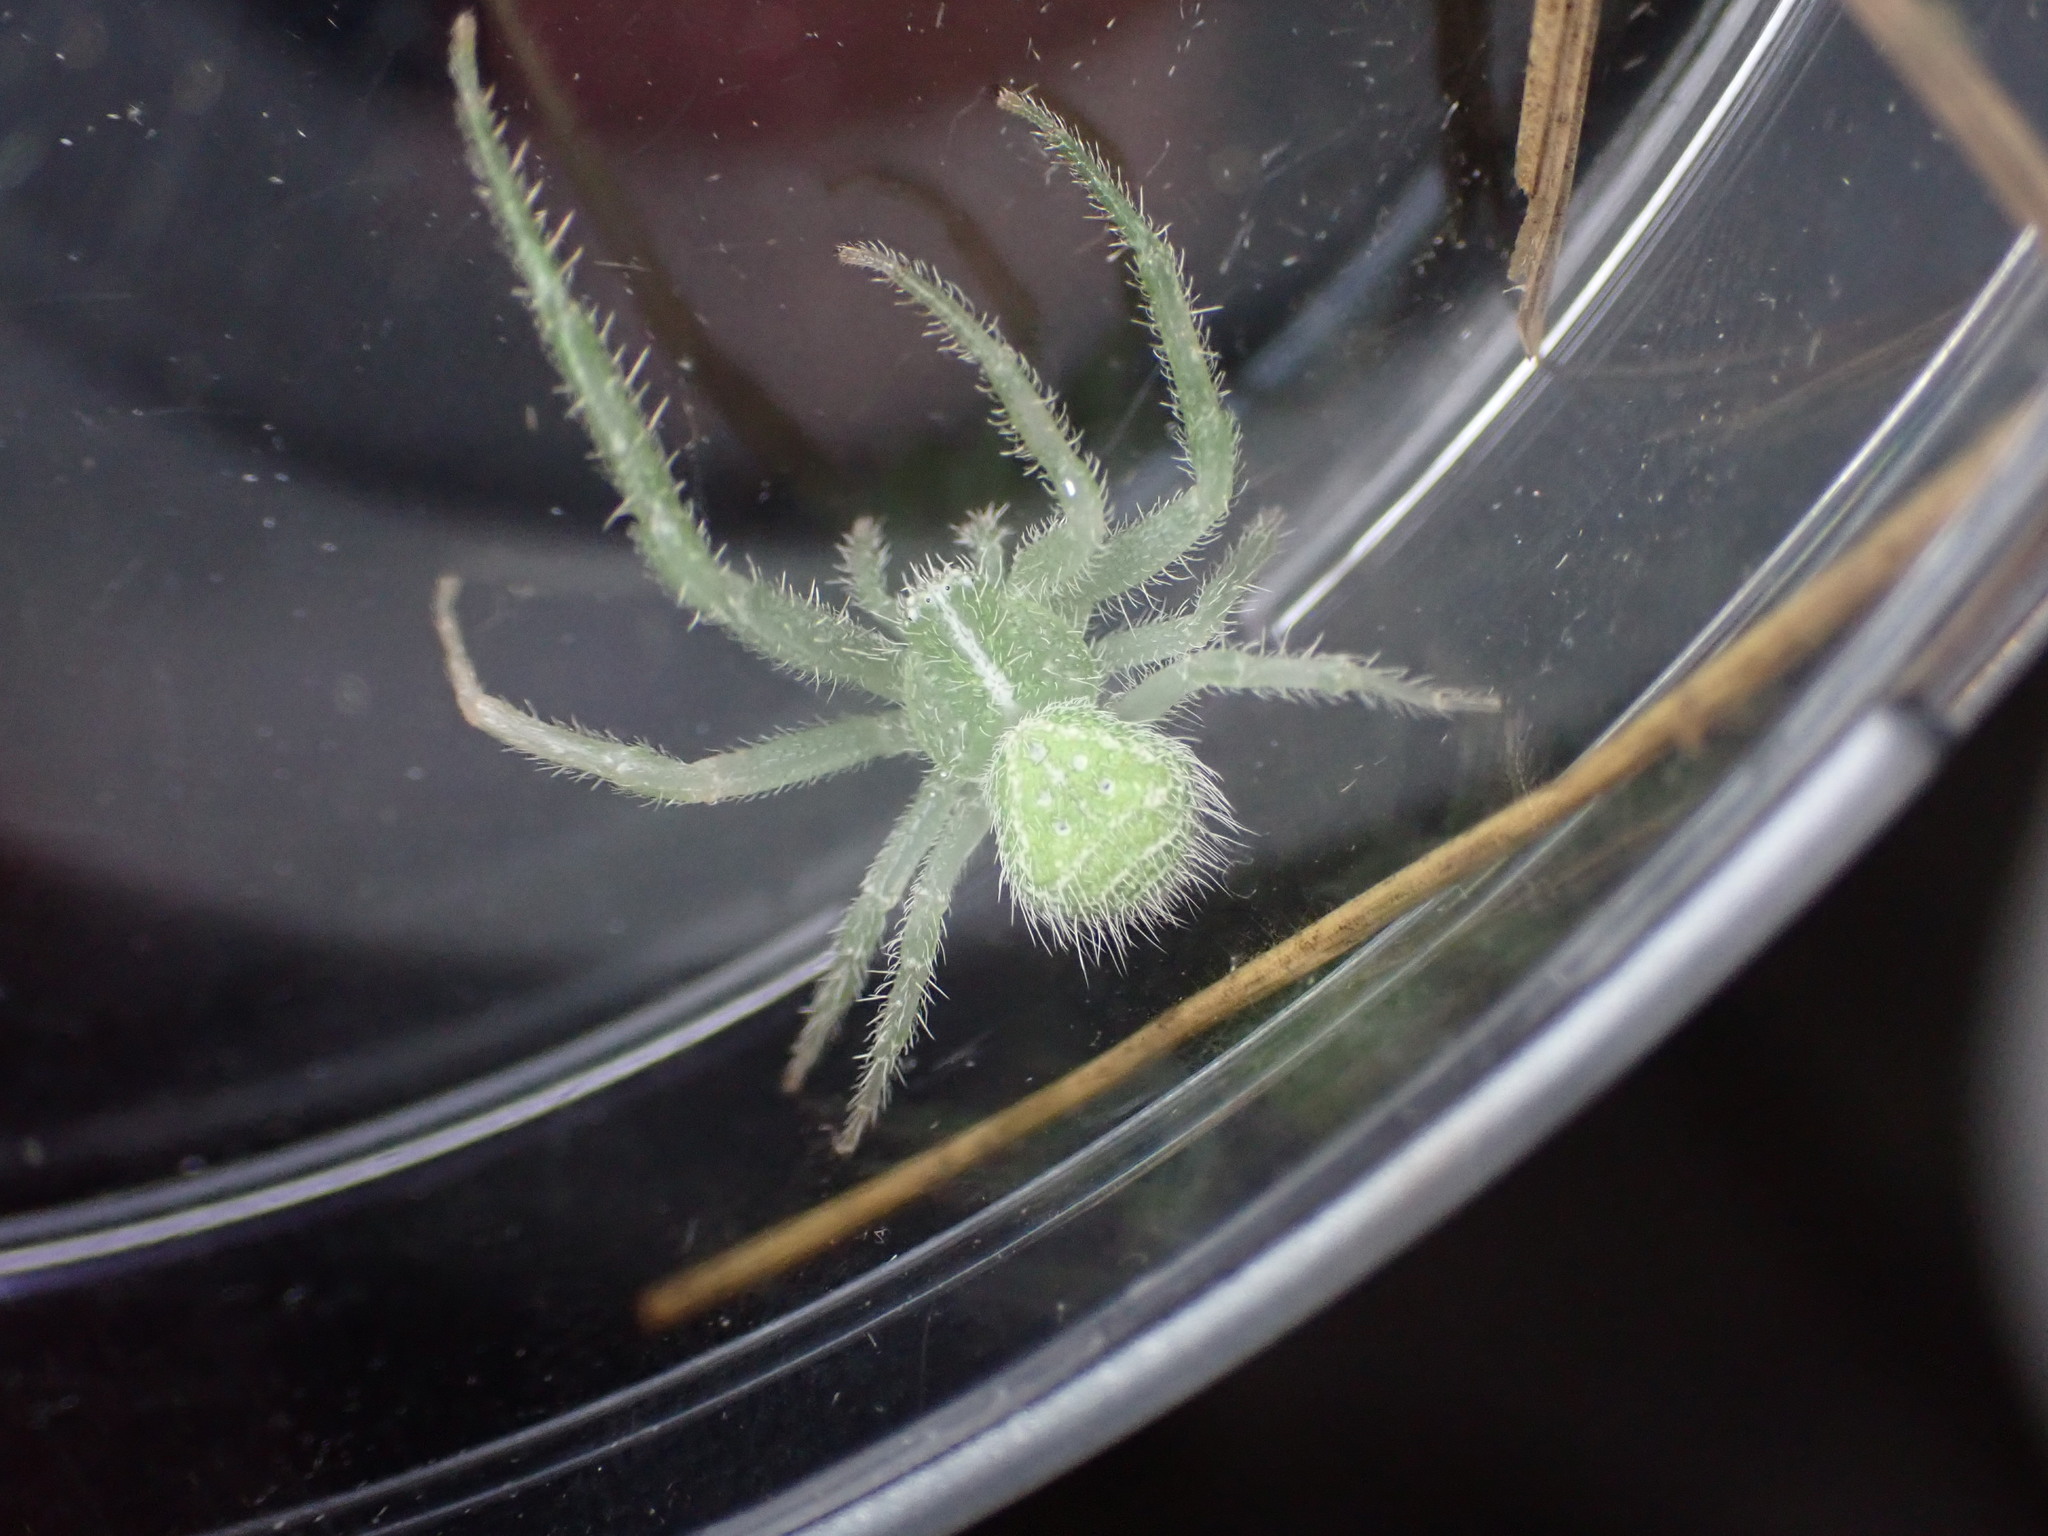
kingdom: Animalia
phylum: Arthropoda
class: Arachnida
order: Araneae
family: Thomisidae
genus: Heriaeus
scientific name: Heriaeus hirtus
